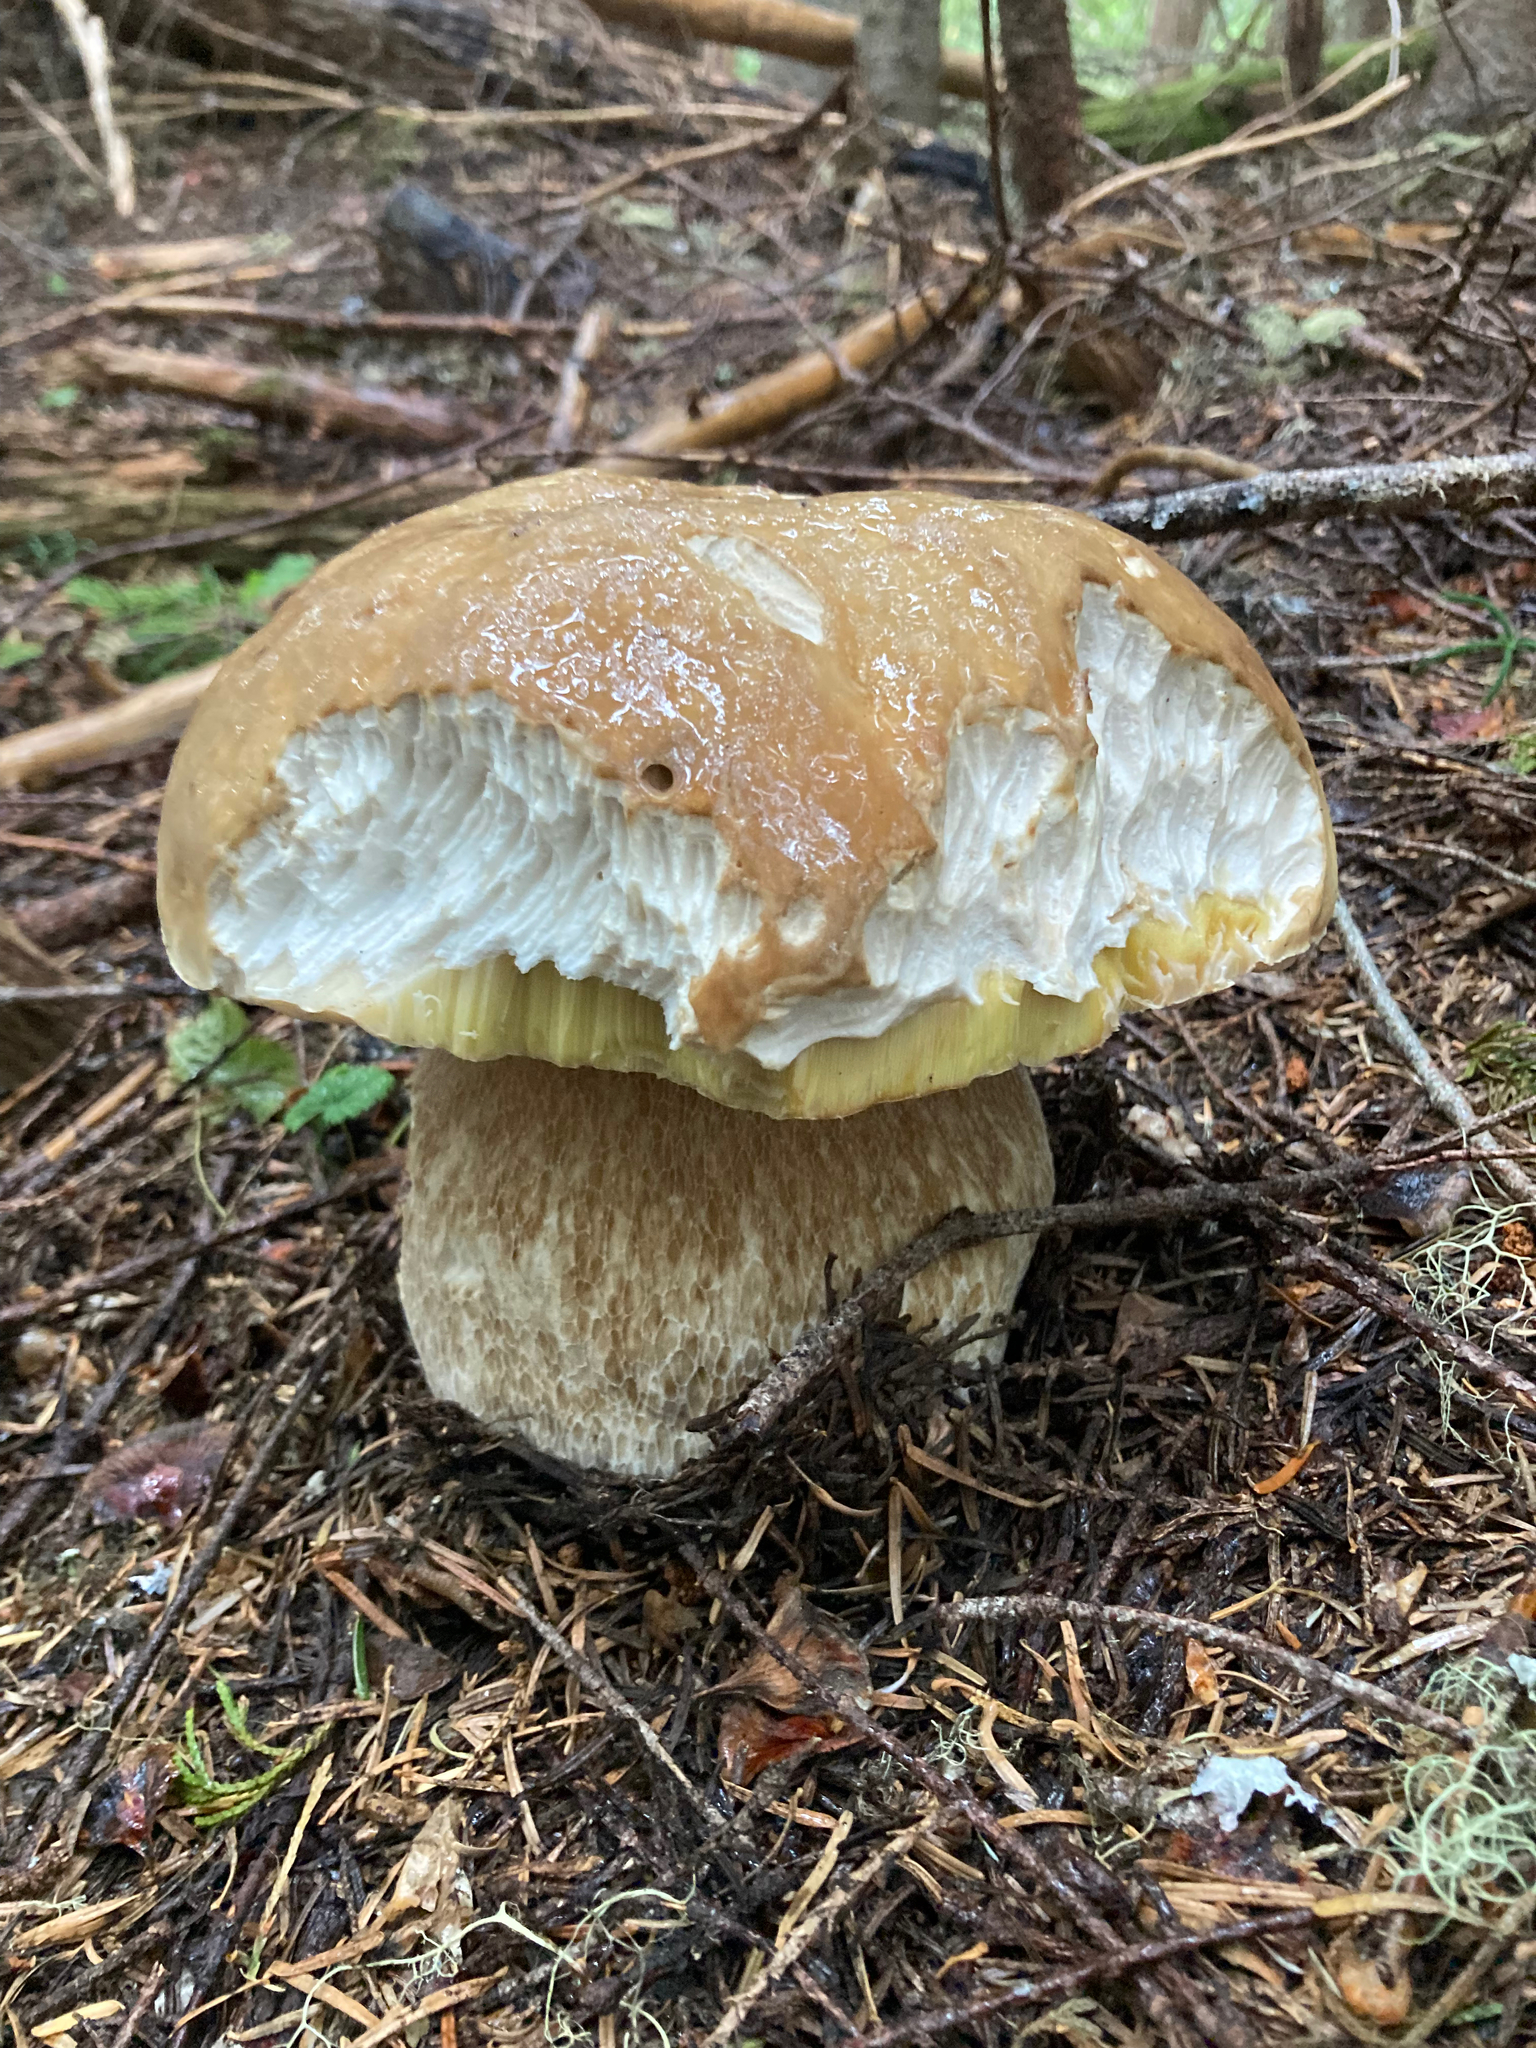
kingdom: Fungi
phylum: Basidiomycota
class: Agaricomycetes
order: Boletales
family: Boletaceae
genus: Boletus
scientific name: Boletus edulis
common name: Cep
